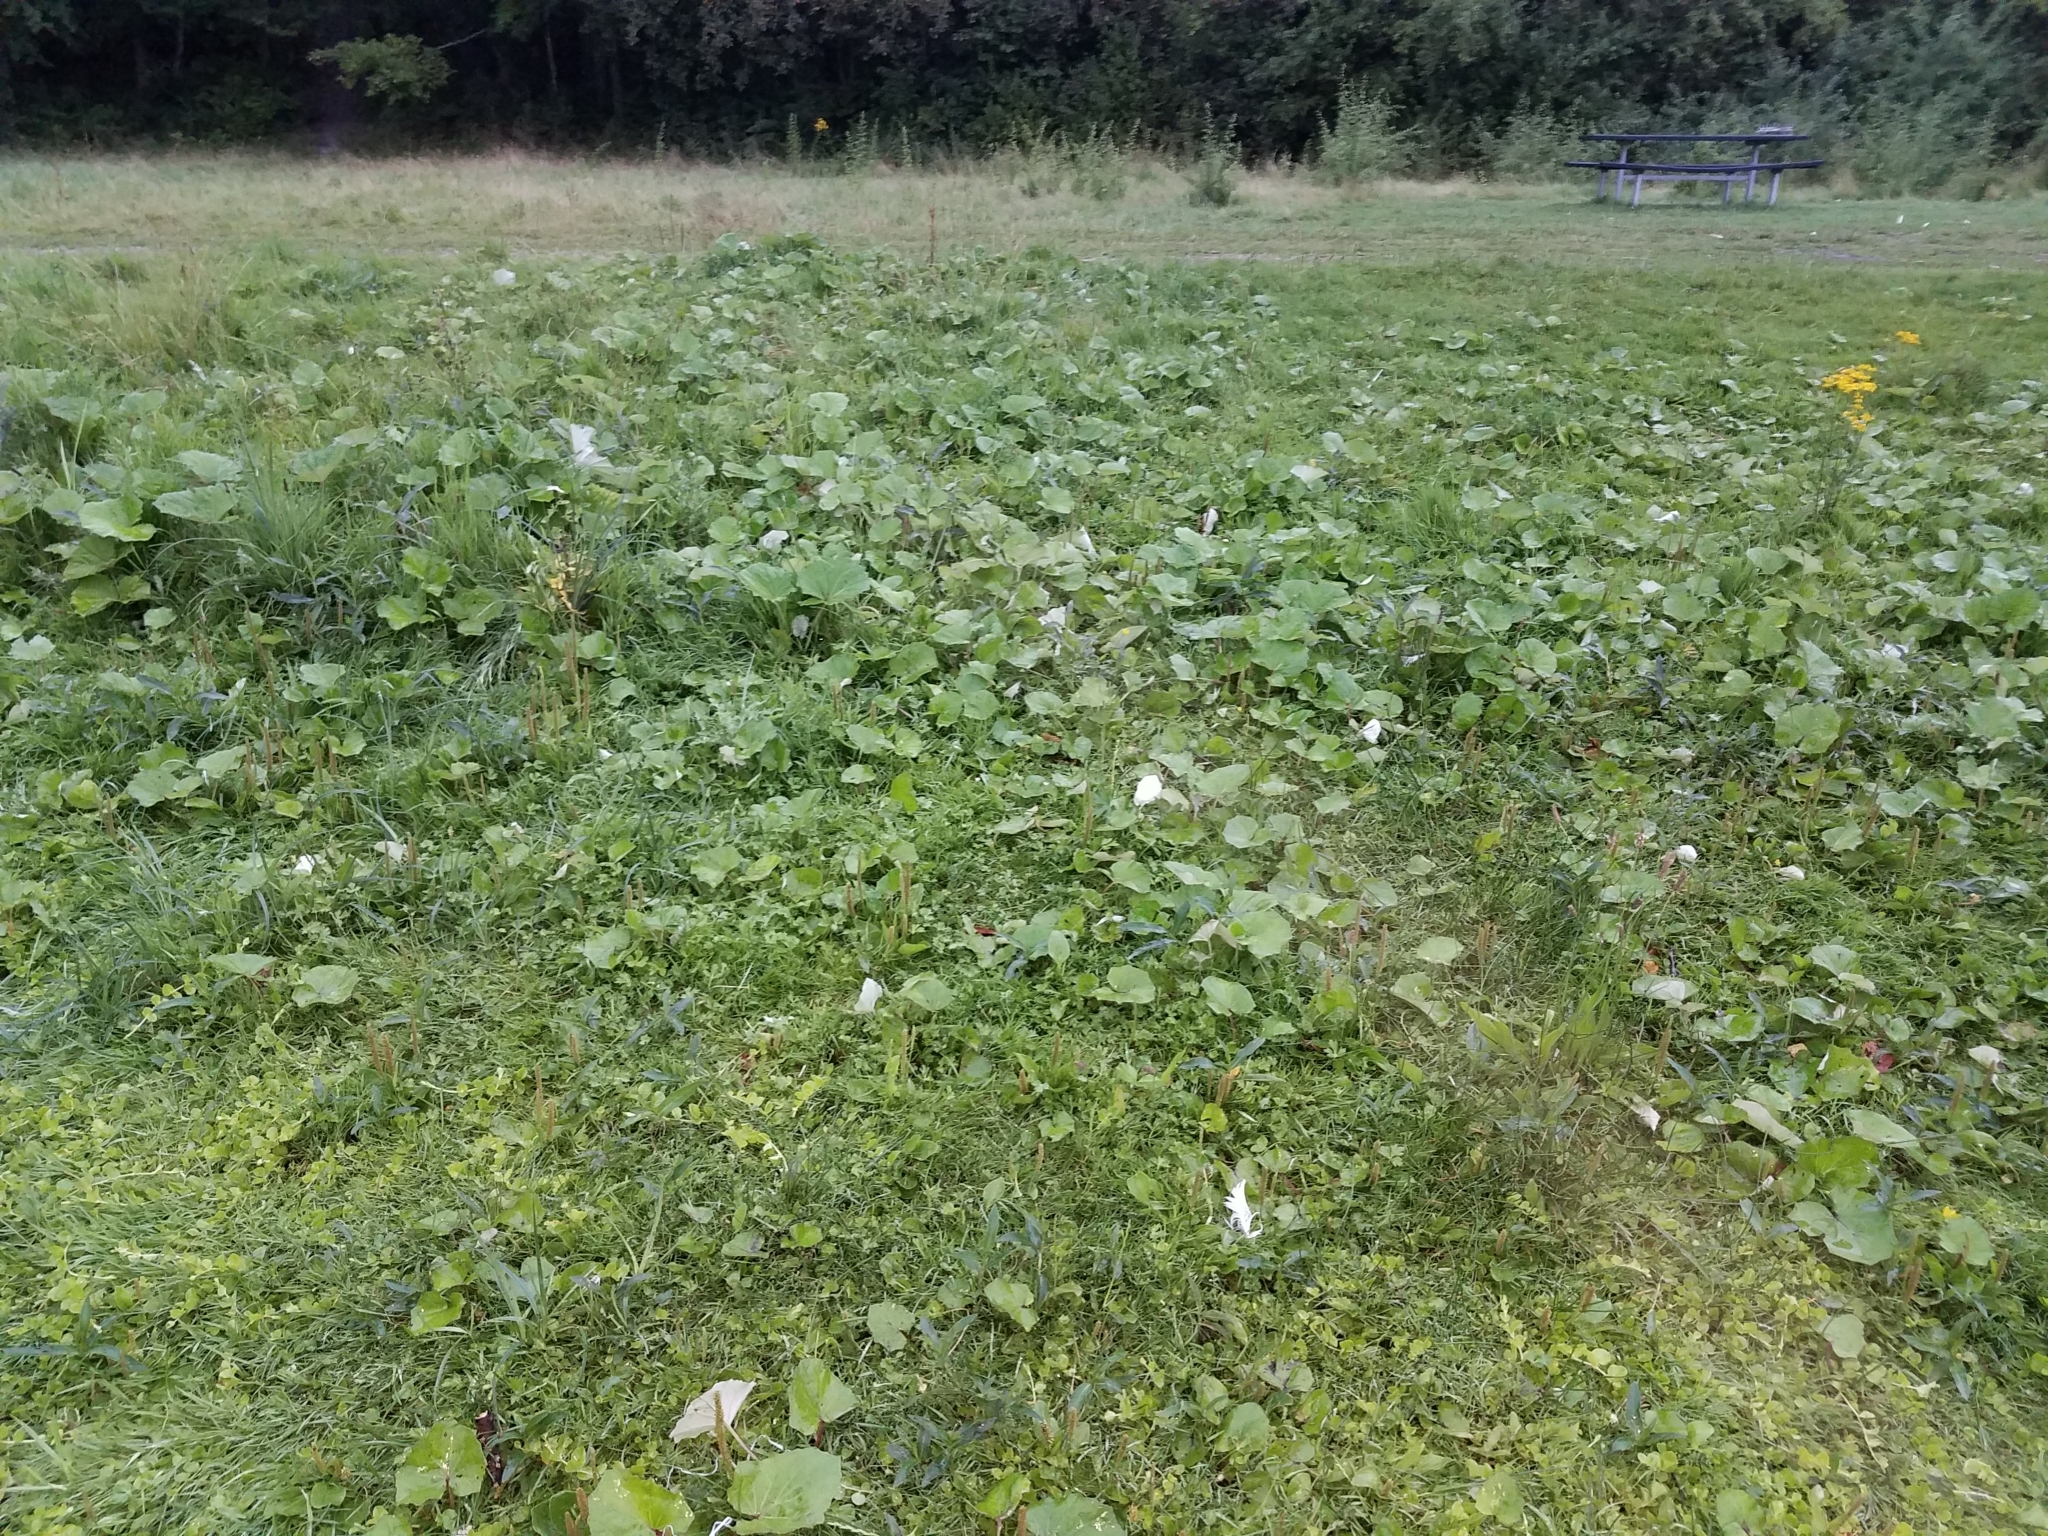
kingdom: Plantae
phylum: Tracheophyta
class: Magnoliopsida
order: Asterales
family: Asteraceae
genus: Tussilago
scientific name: Tussilago farfara
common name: Coltsfoot
